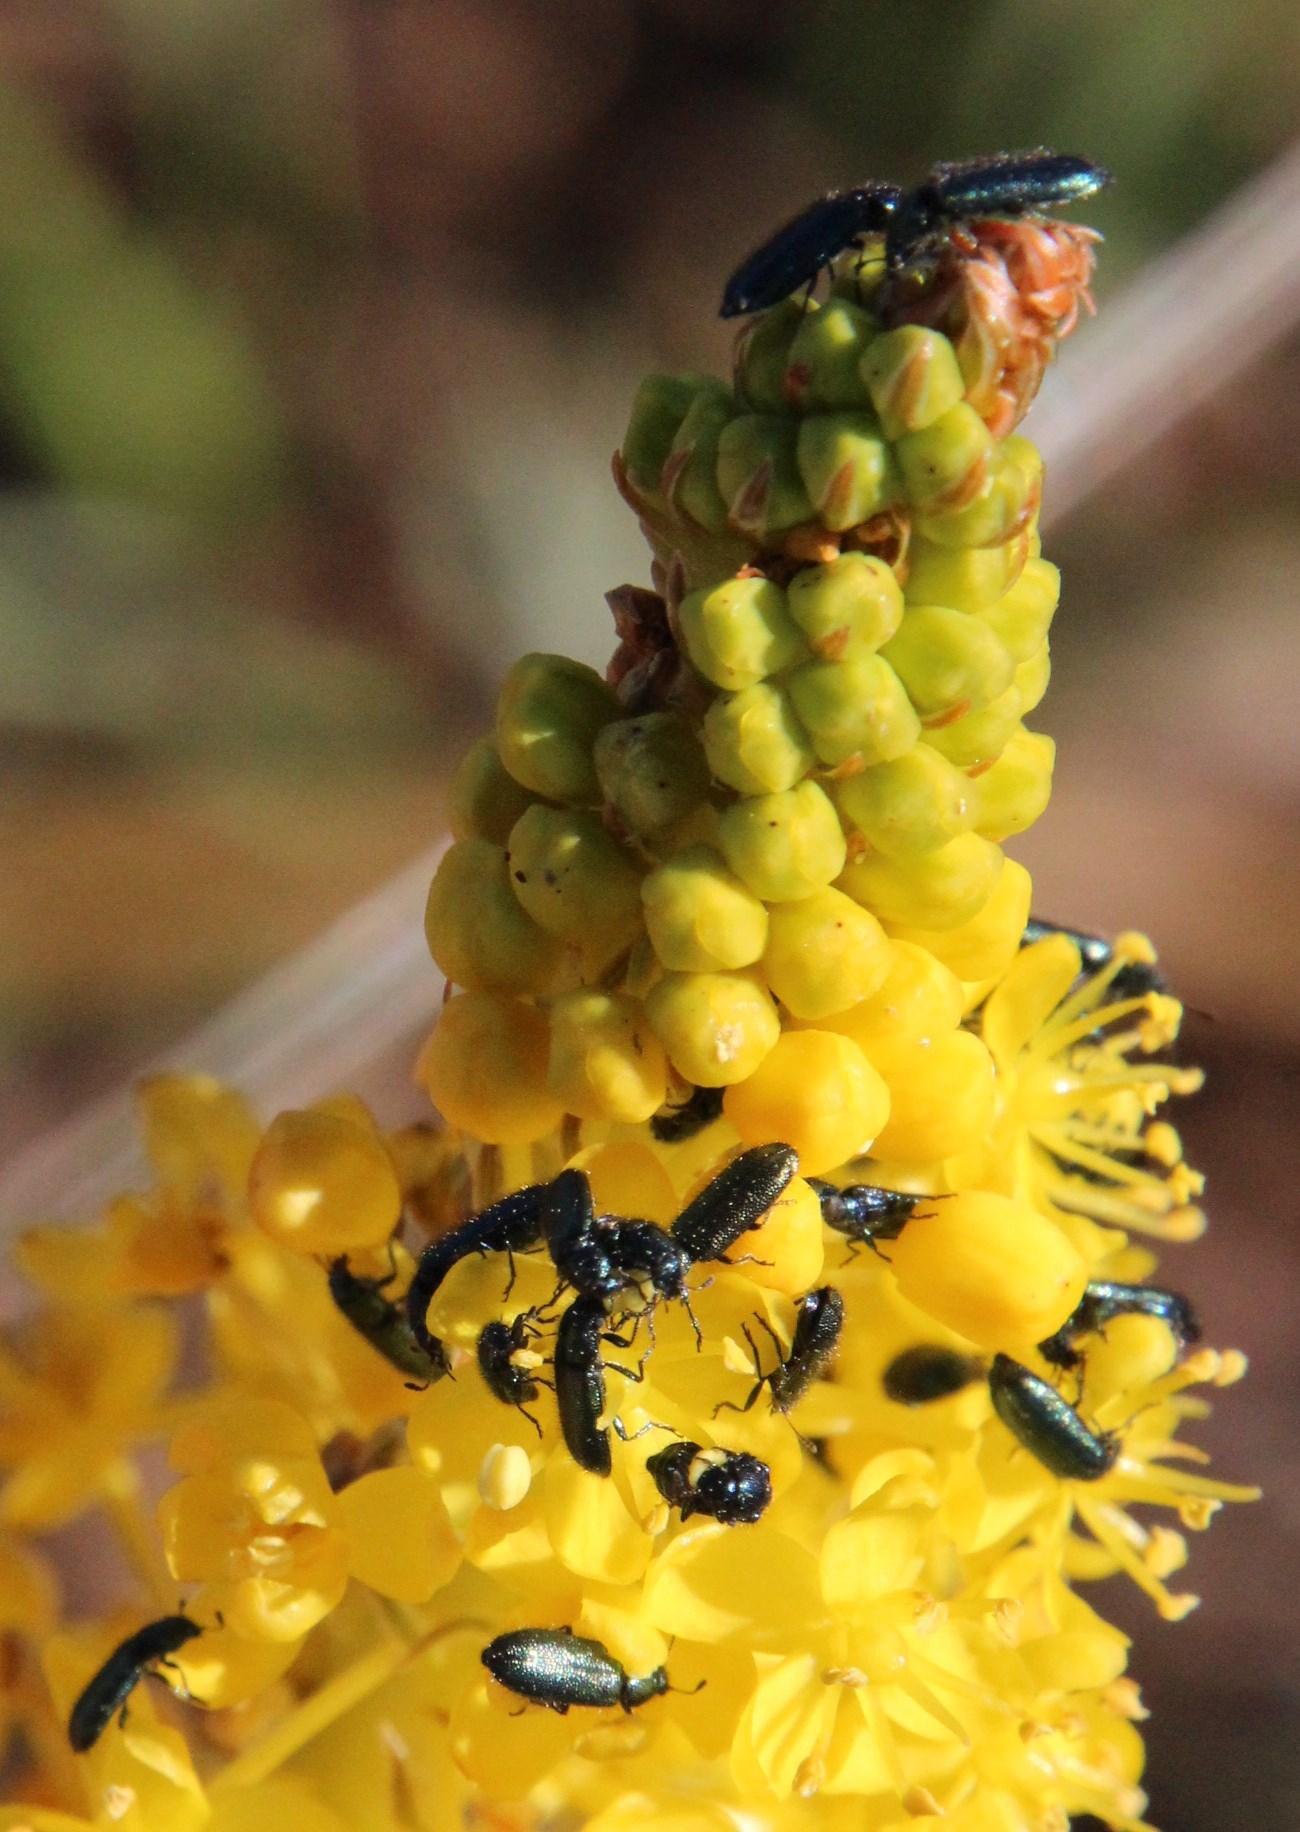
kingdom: Plantae
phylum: Tracheophyta
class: Liliopsida
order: Asparagales
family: Asphodelaceae
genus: Bulbinella
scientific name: Bulbinella nutans
